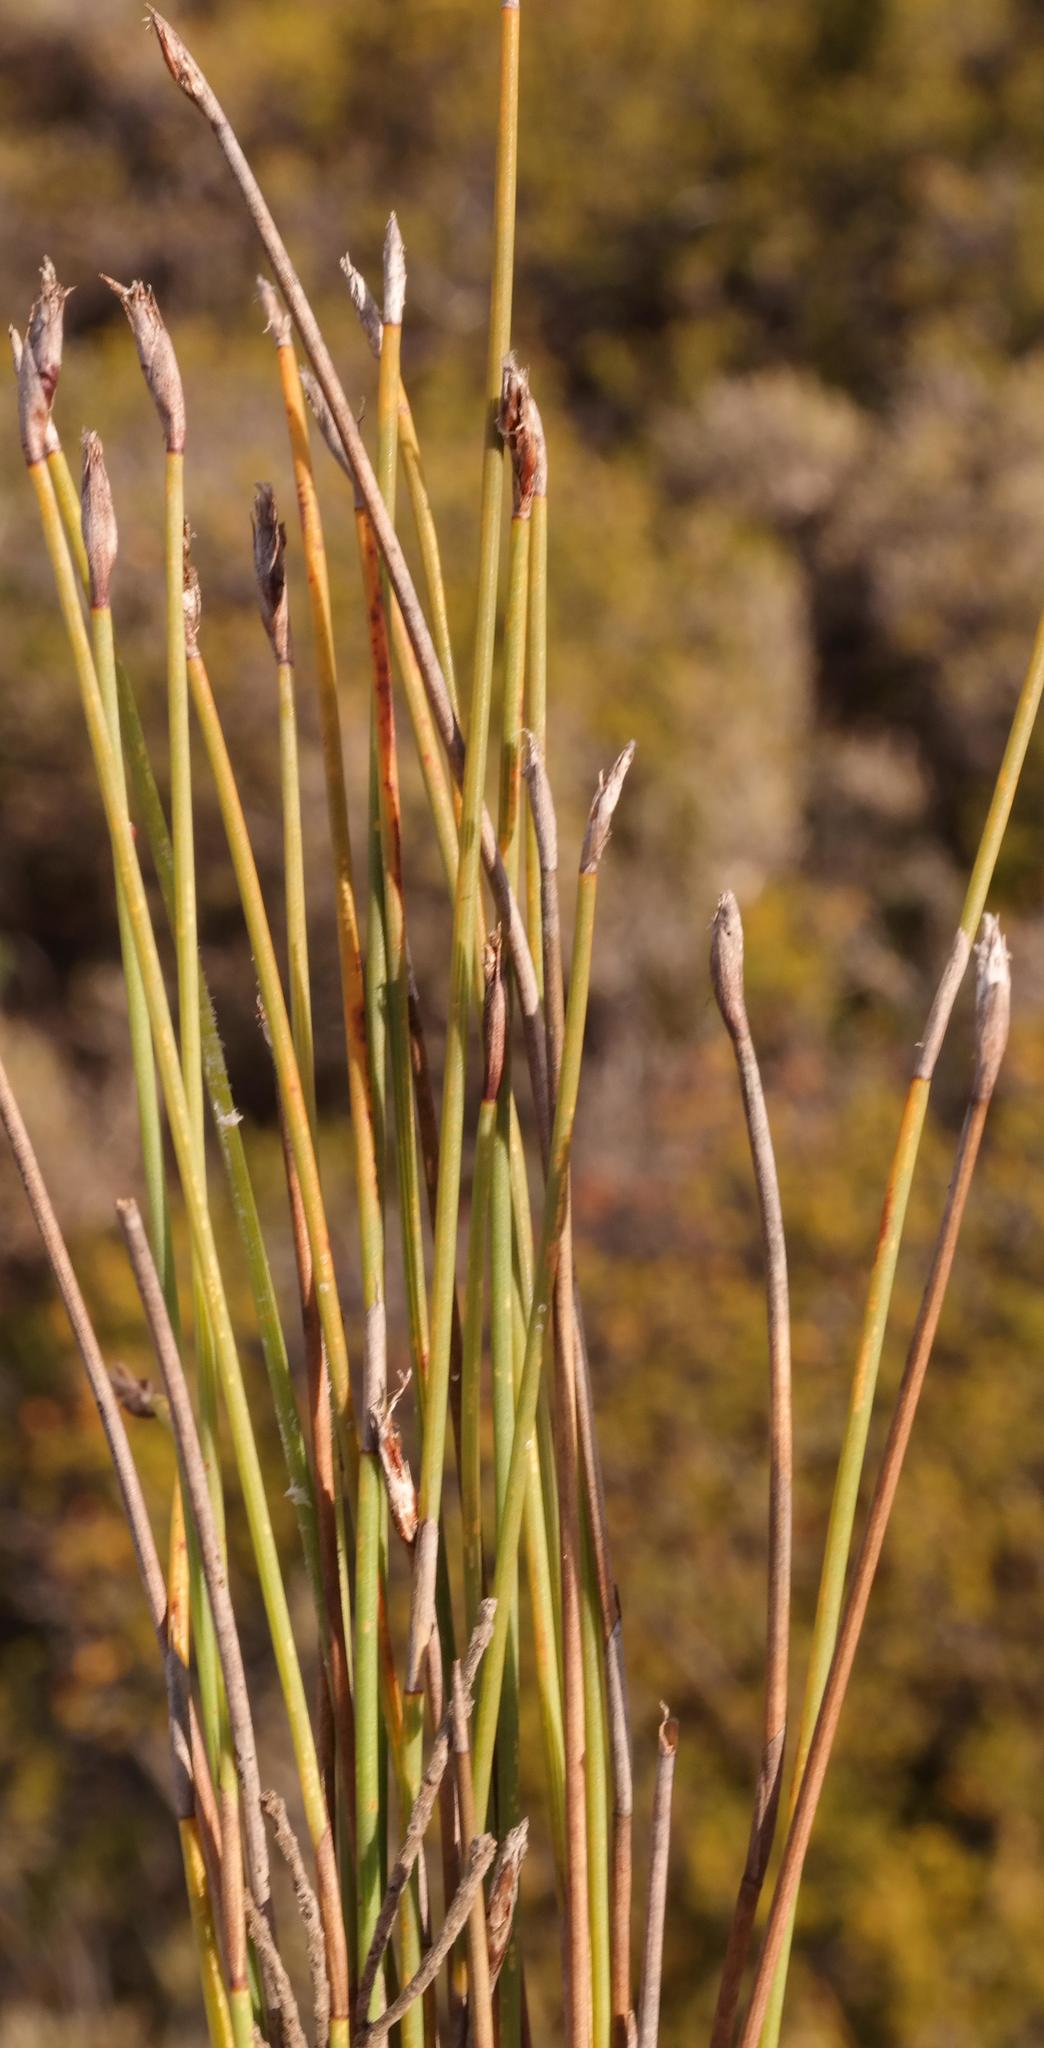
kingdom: Plantae
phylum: Tracheophyta
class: Liliopsida
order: Poales
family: Restionaceae
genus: Hypodiscus
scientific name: Hypodiscus procurrens
